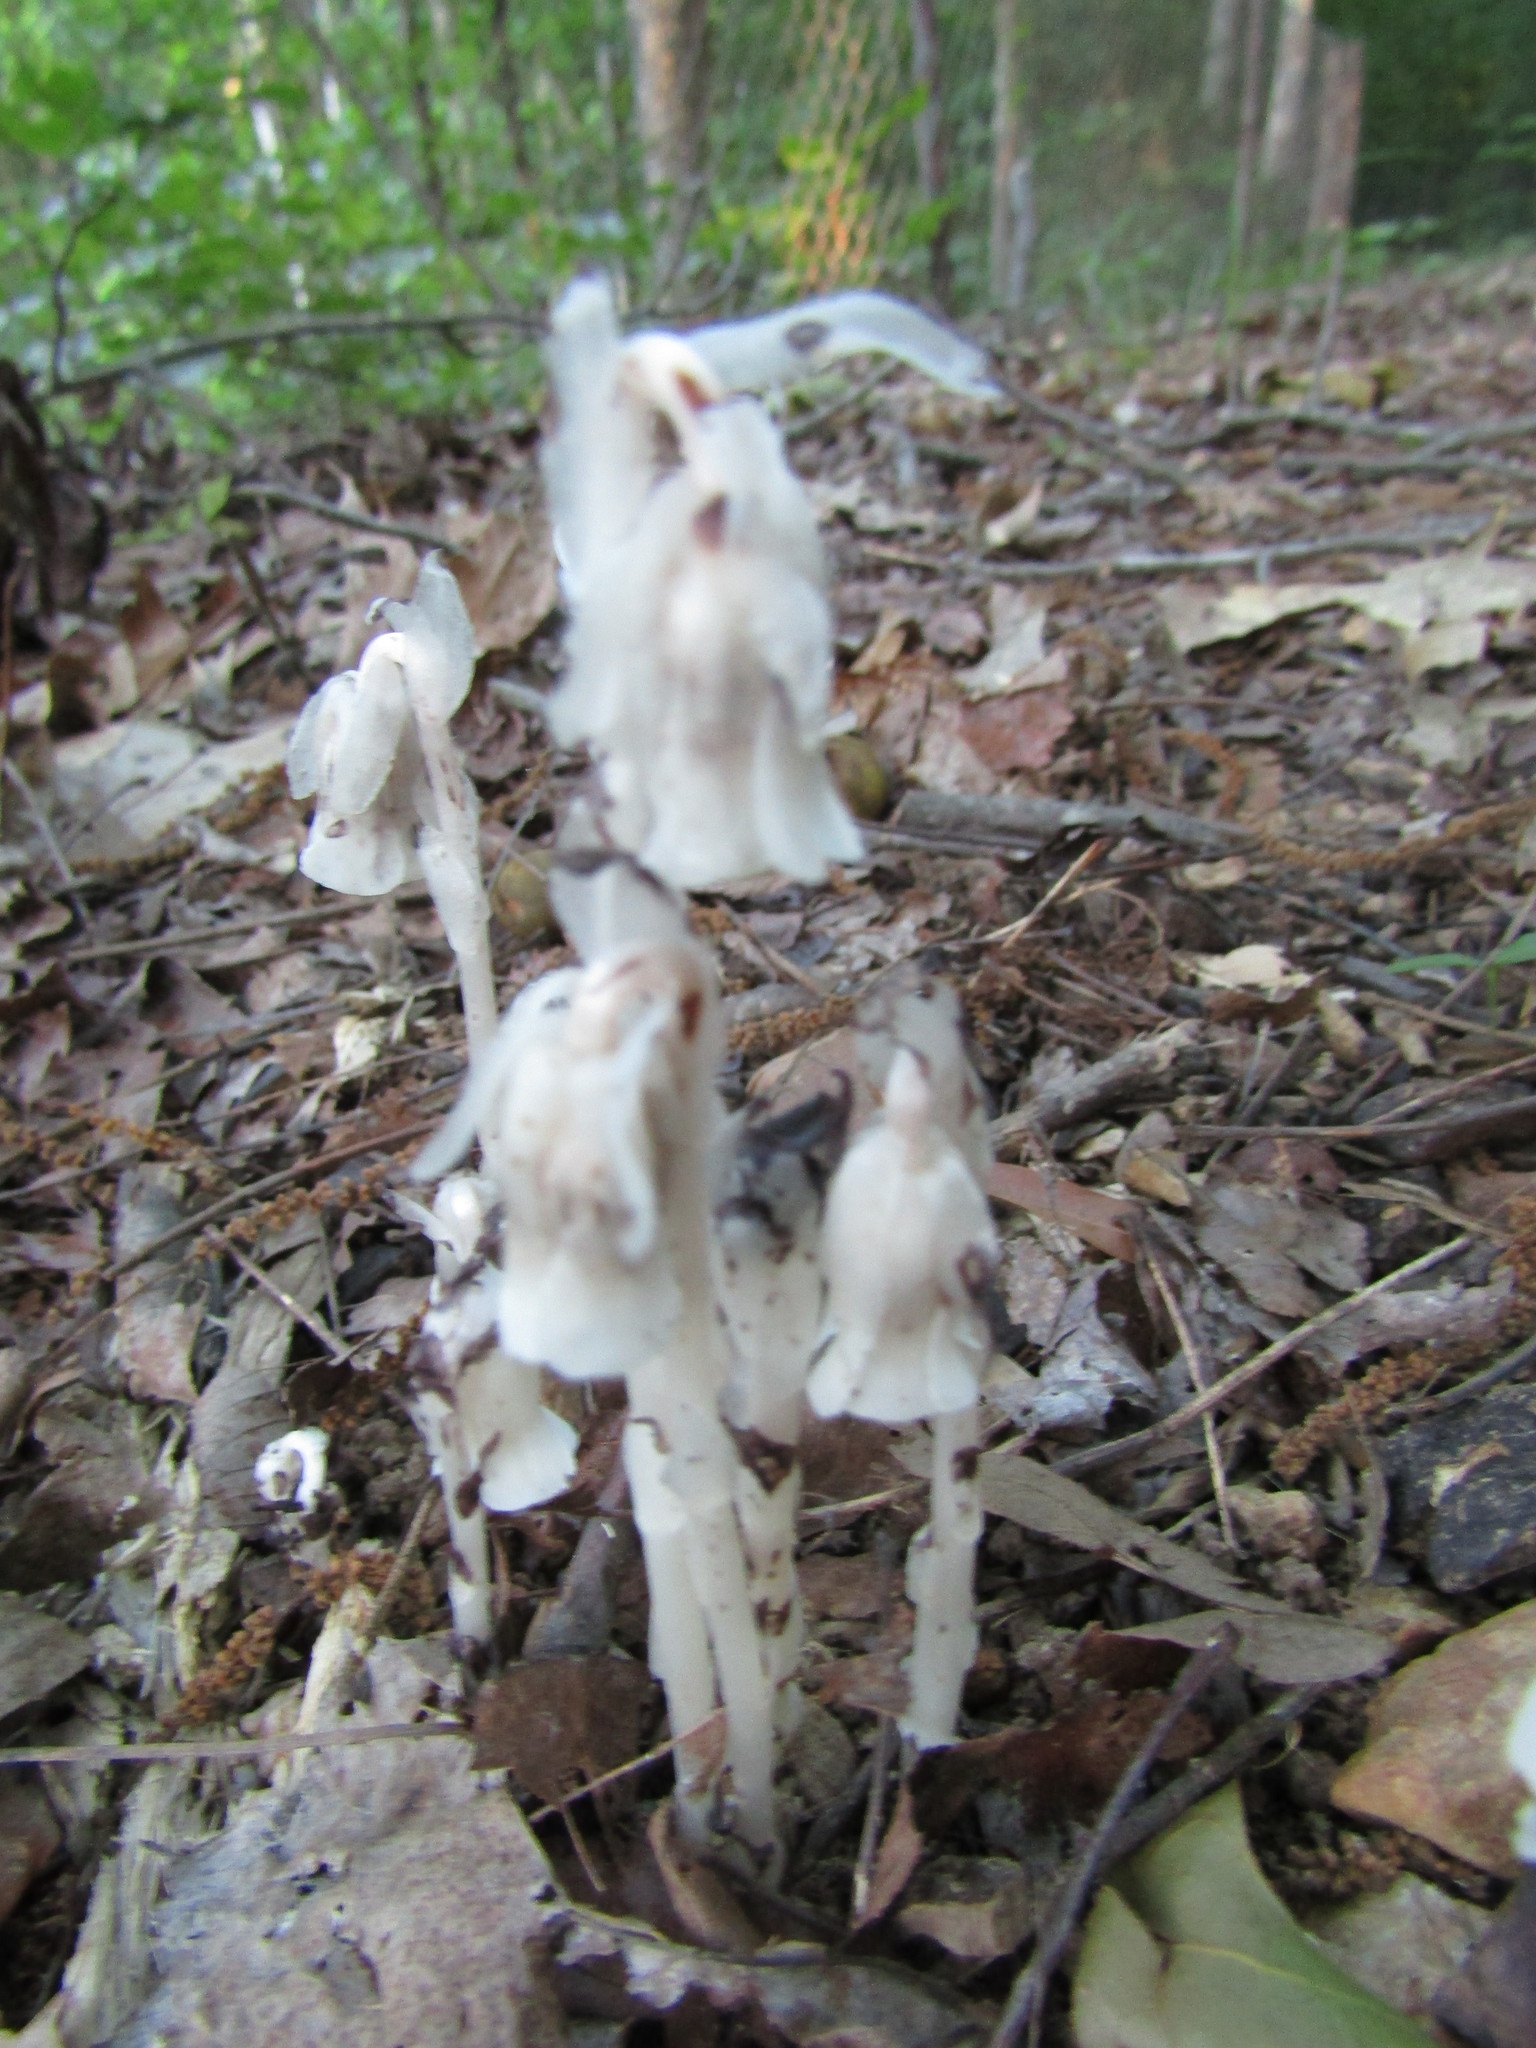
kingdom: Plantae
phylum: Tracheophyta
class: Magnoliopsida
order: Ericales
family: Ericaceae
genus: Monotropa
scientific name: Monotropa uniflora
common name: Convulsion root
